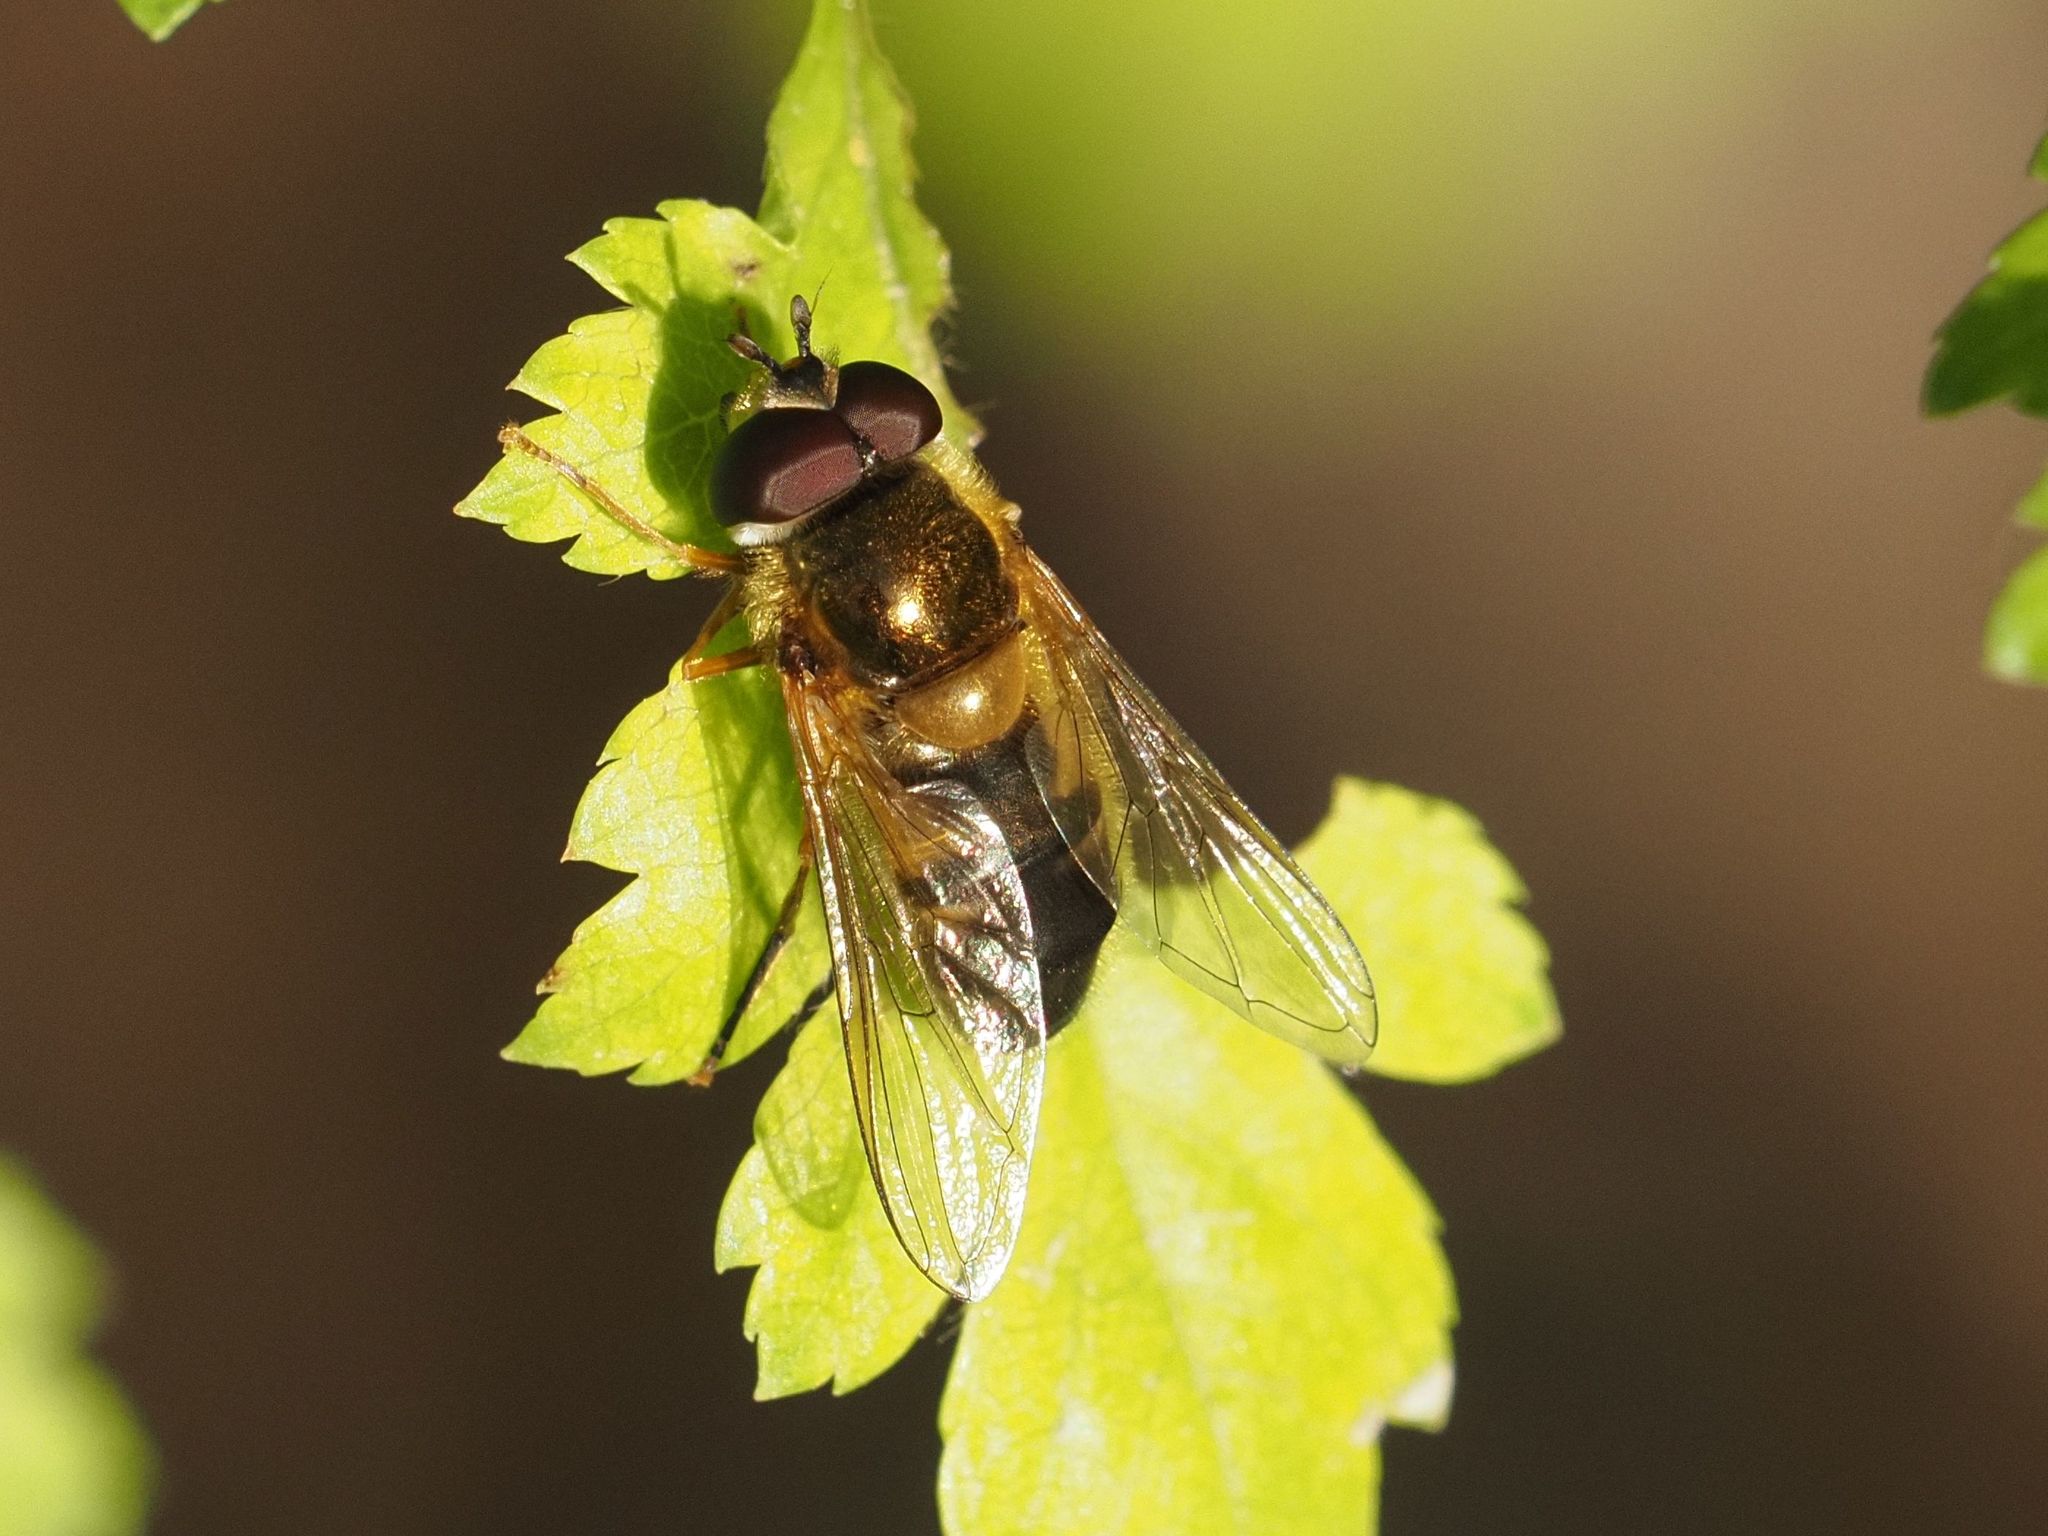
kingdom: Animalia
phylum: Arthropoda
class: Insecta
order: Diptera
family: Syrphidae
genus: Epistrophe
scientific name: Epistrophe eligans
